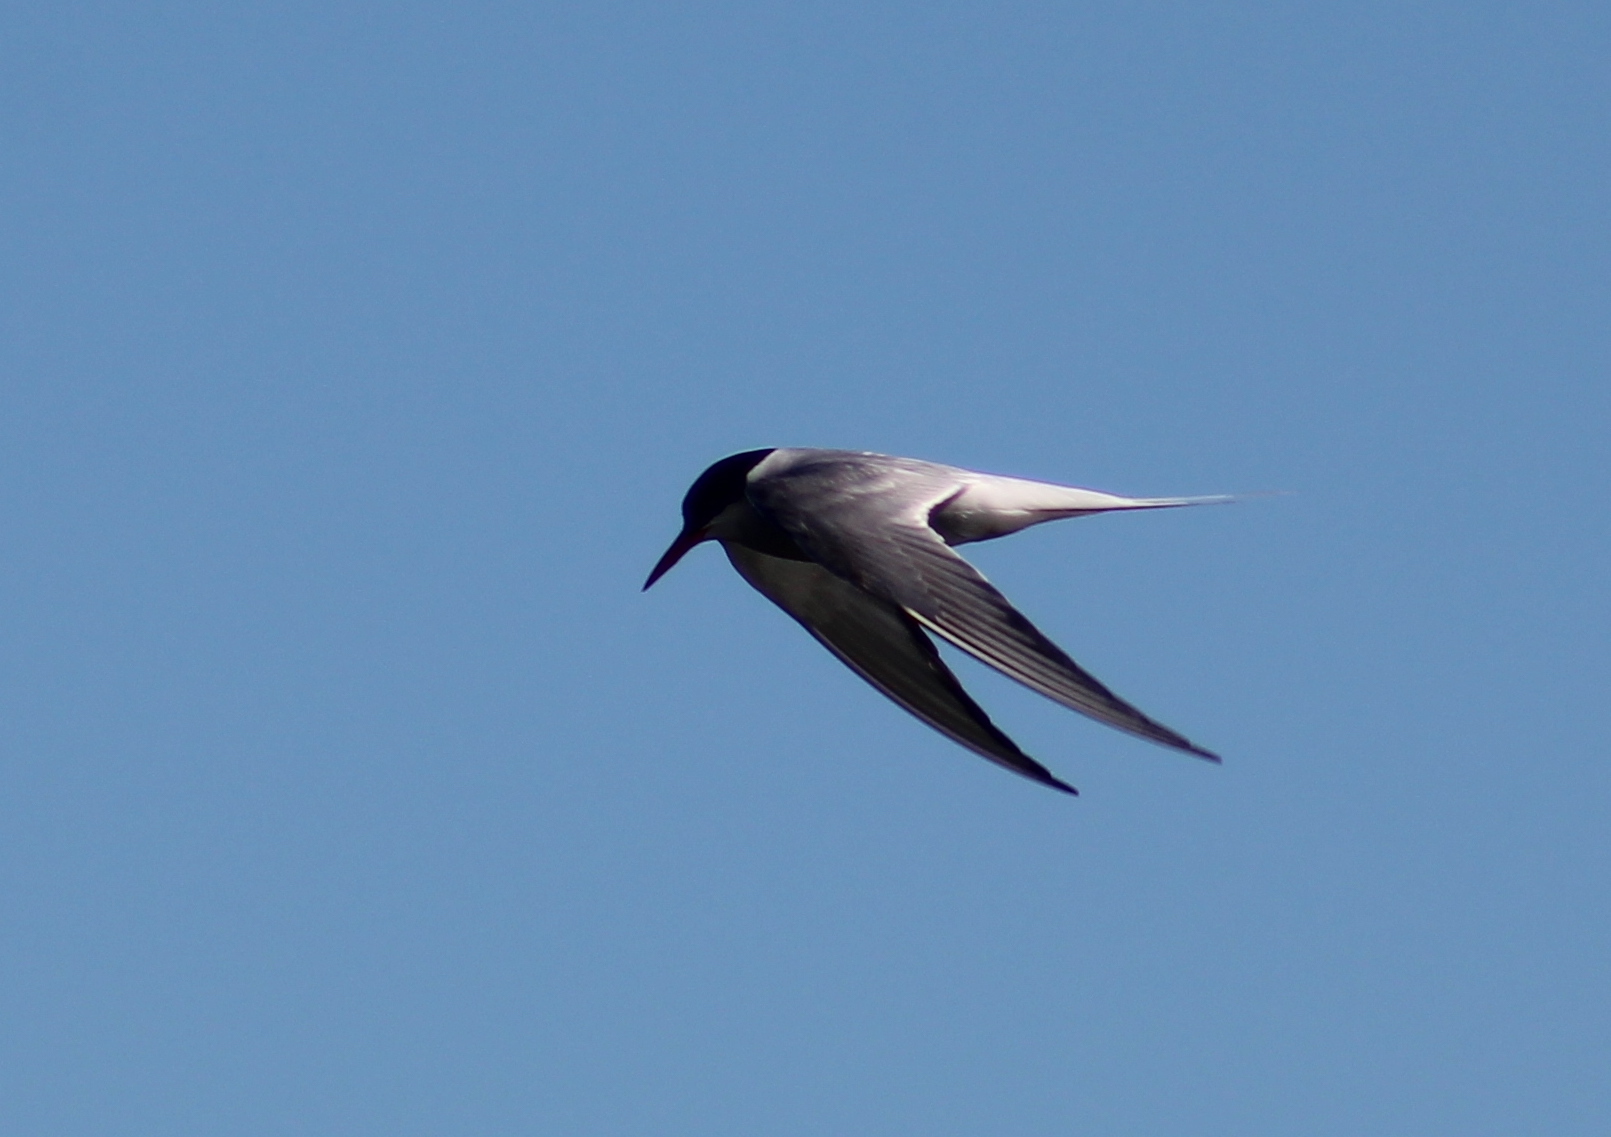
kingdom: Animalia
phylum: Chordata
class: Aves
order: Charadriiformes
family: Laridae
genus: Sterna
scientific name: Sterna paradisaea
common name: Arctic tern
